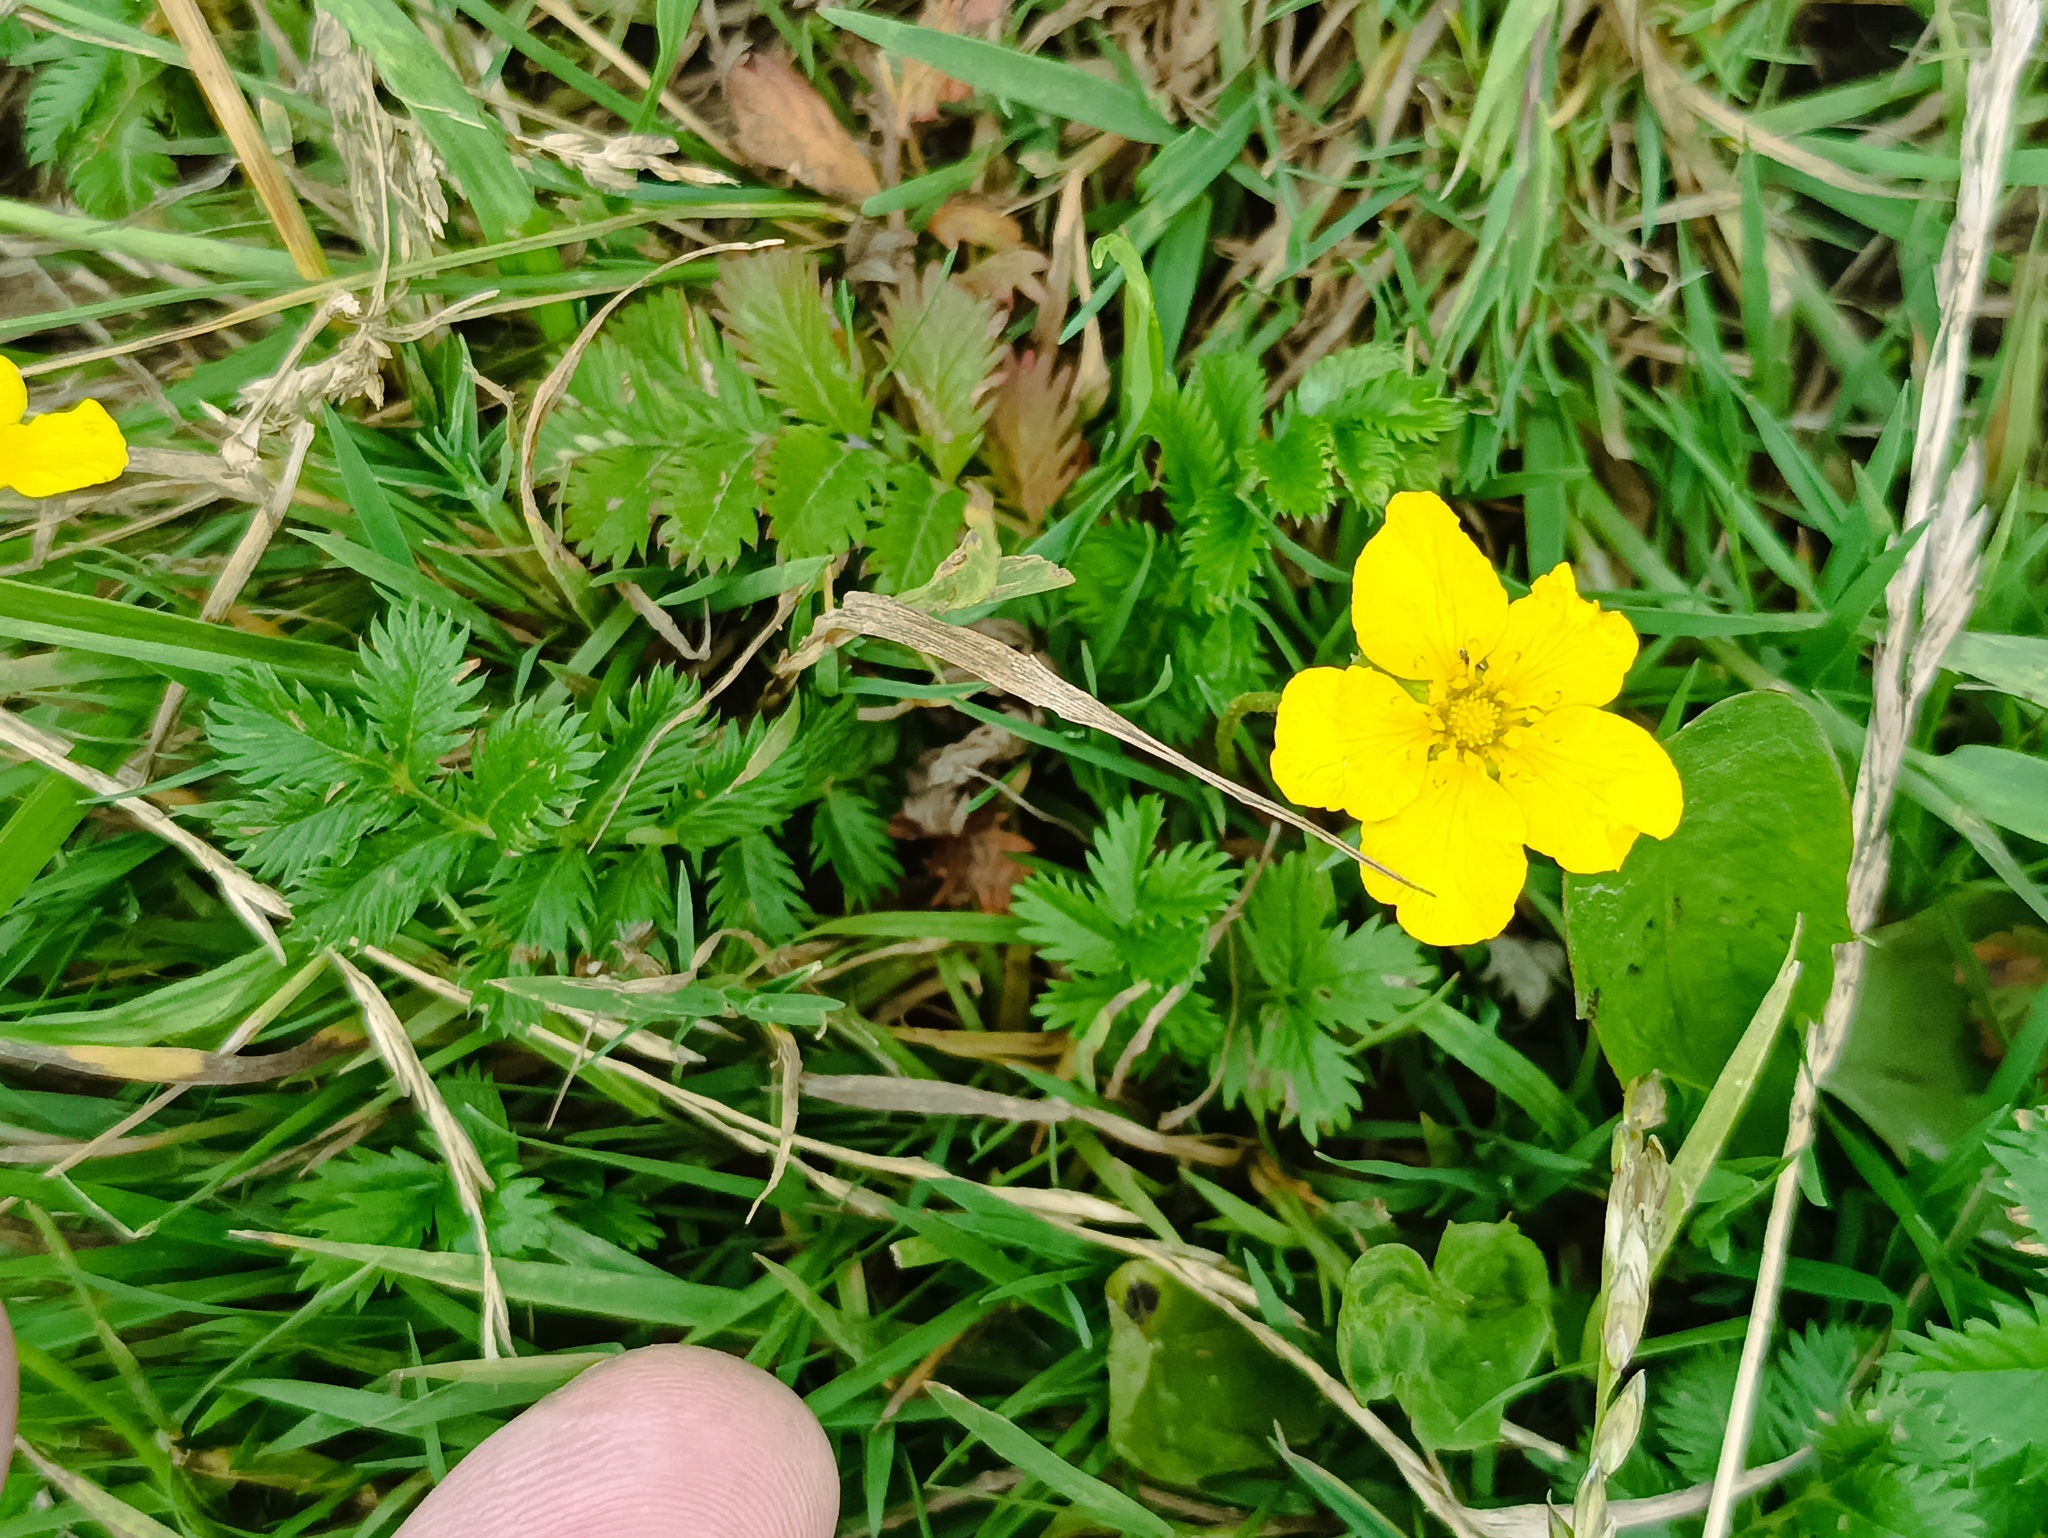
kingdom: Plantae
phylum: Tracheophyta
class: Magnoliopsida
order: Rosales
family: Rosaceae
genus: Argentina
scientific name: Argentina anserina
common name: Common silverweed
